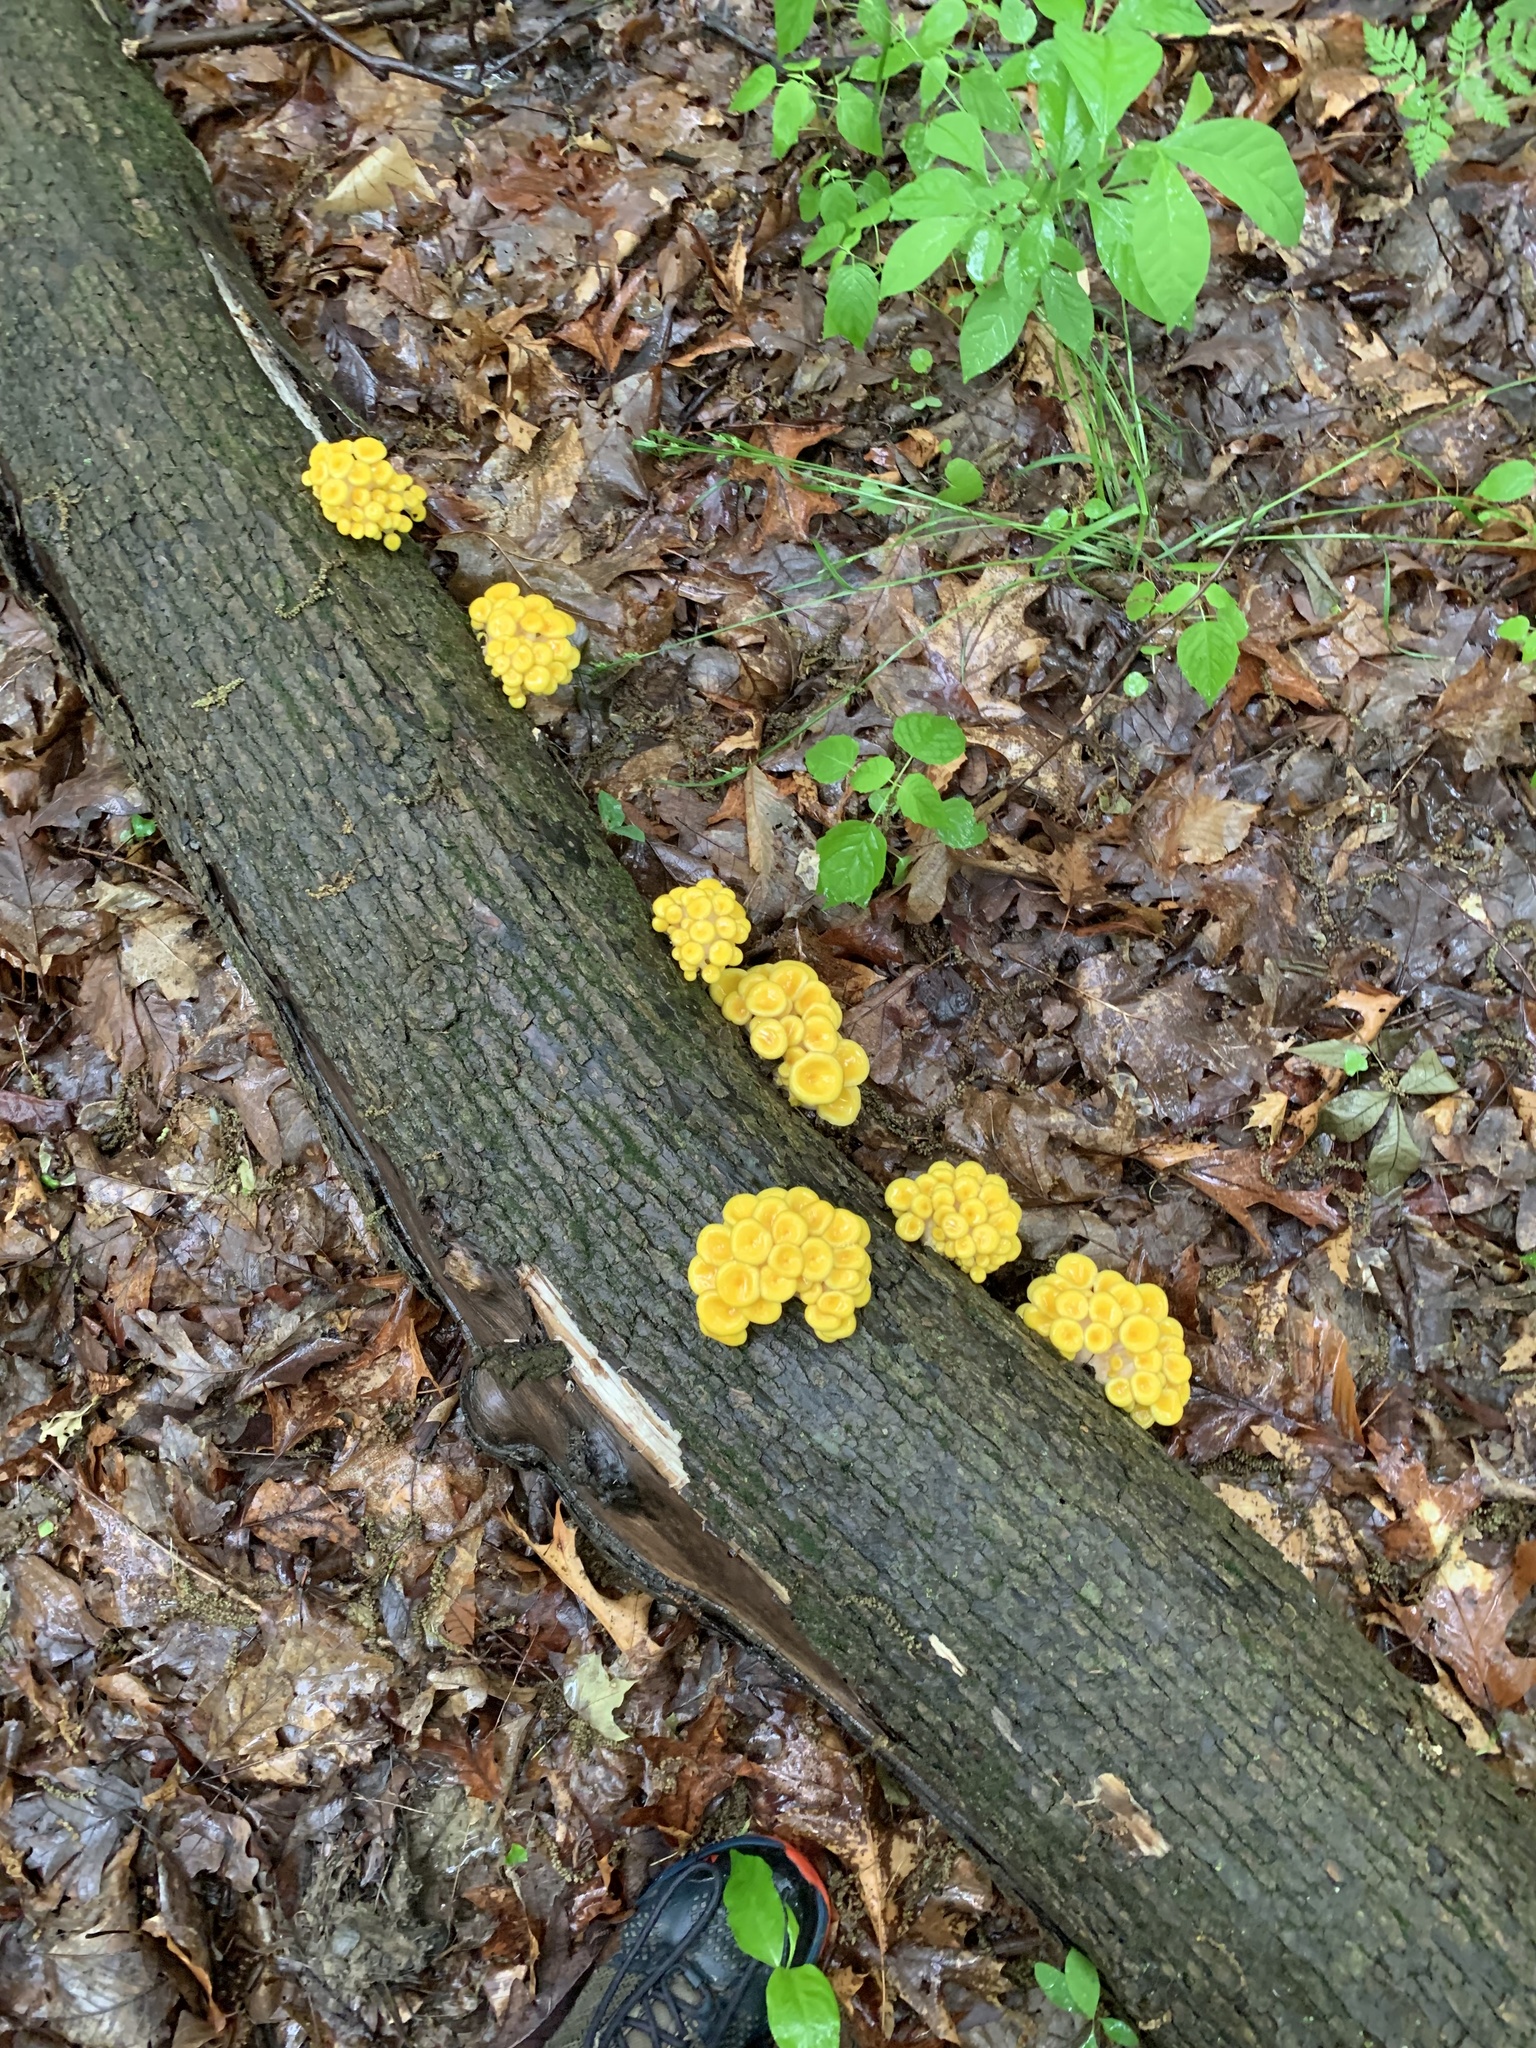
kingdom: Fungi
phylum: Basidiomycota
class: Agaricomycetes
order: Agaricales
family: Pleurotaceae
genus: Pleurotus
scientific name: Pleurotus citrinopileatus
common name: Golden oyster mushroom
